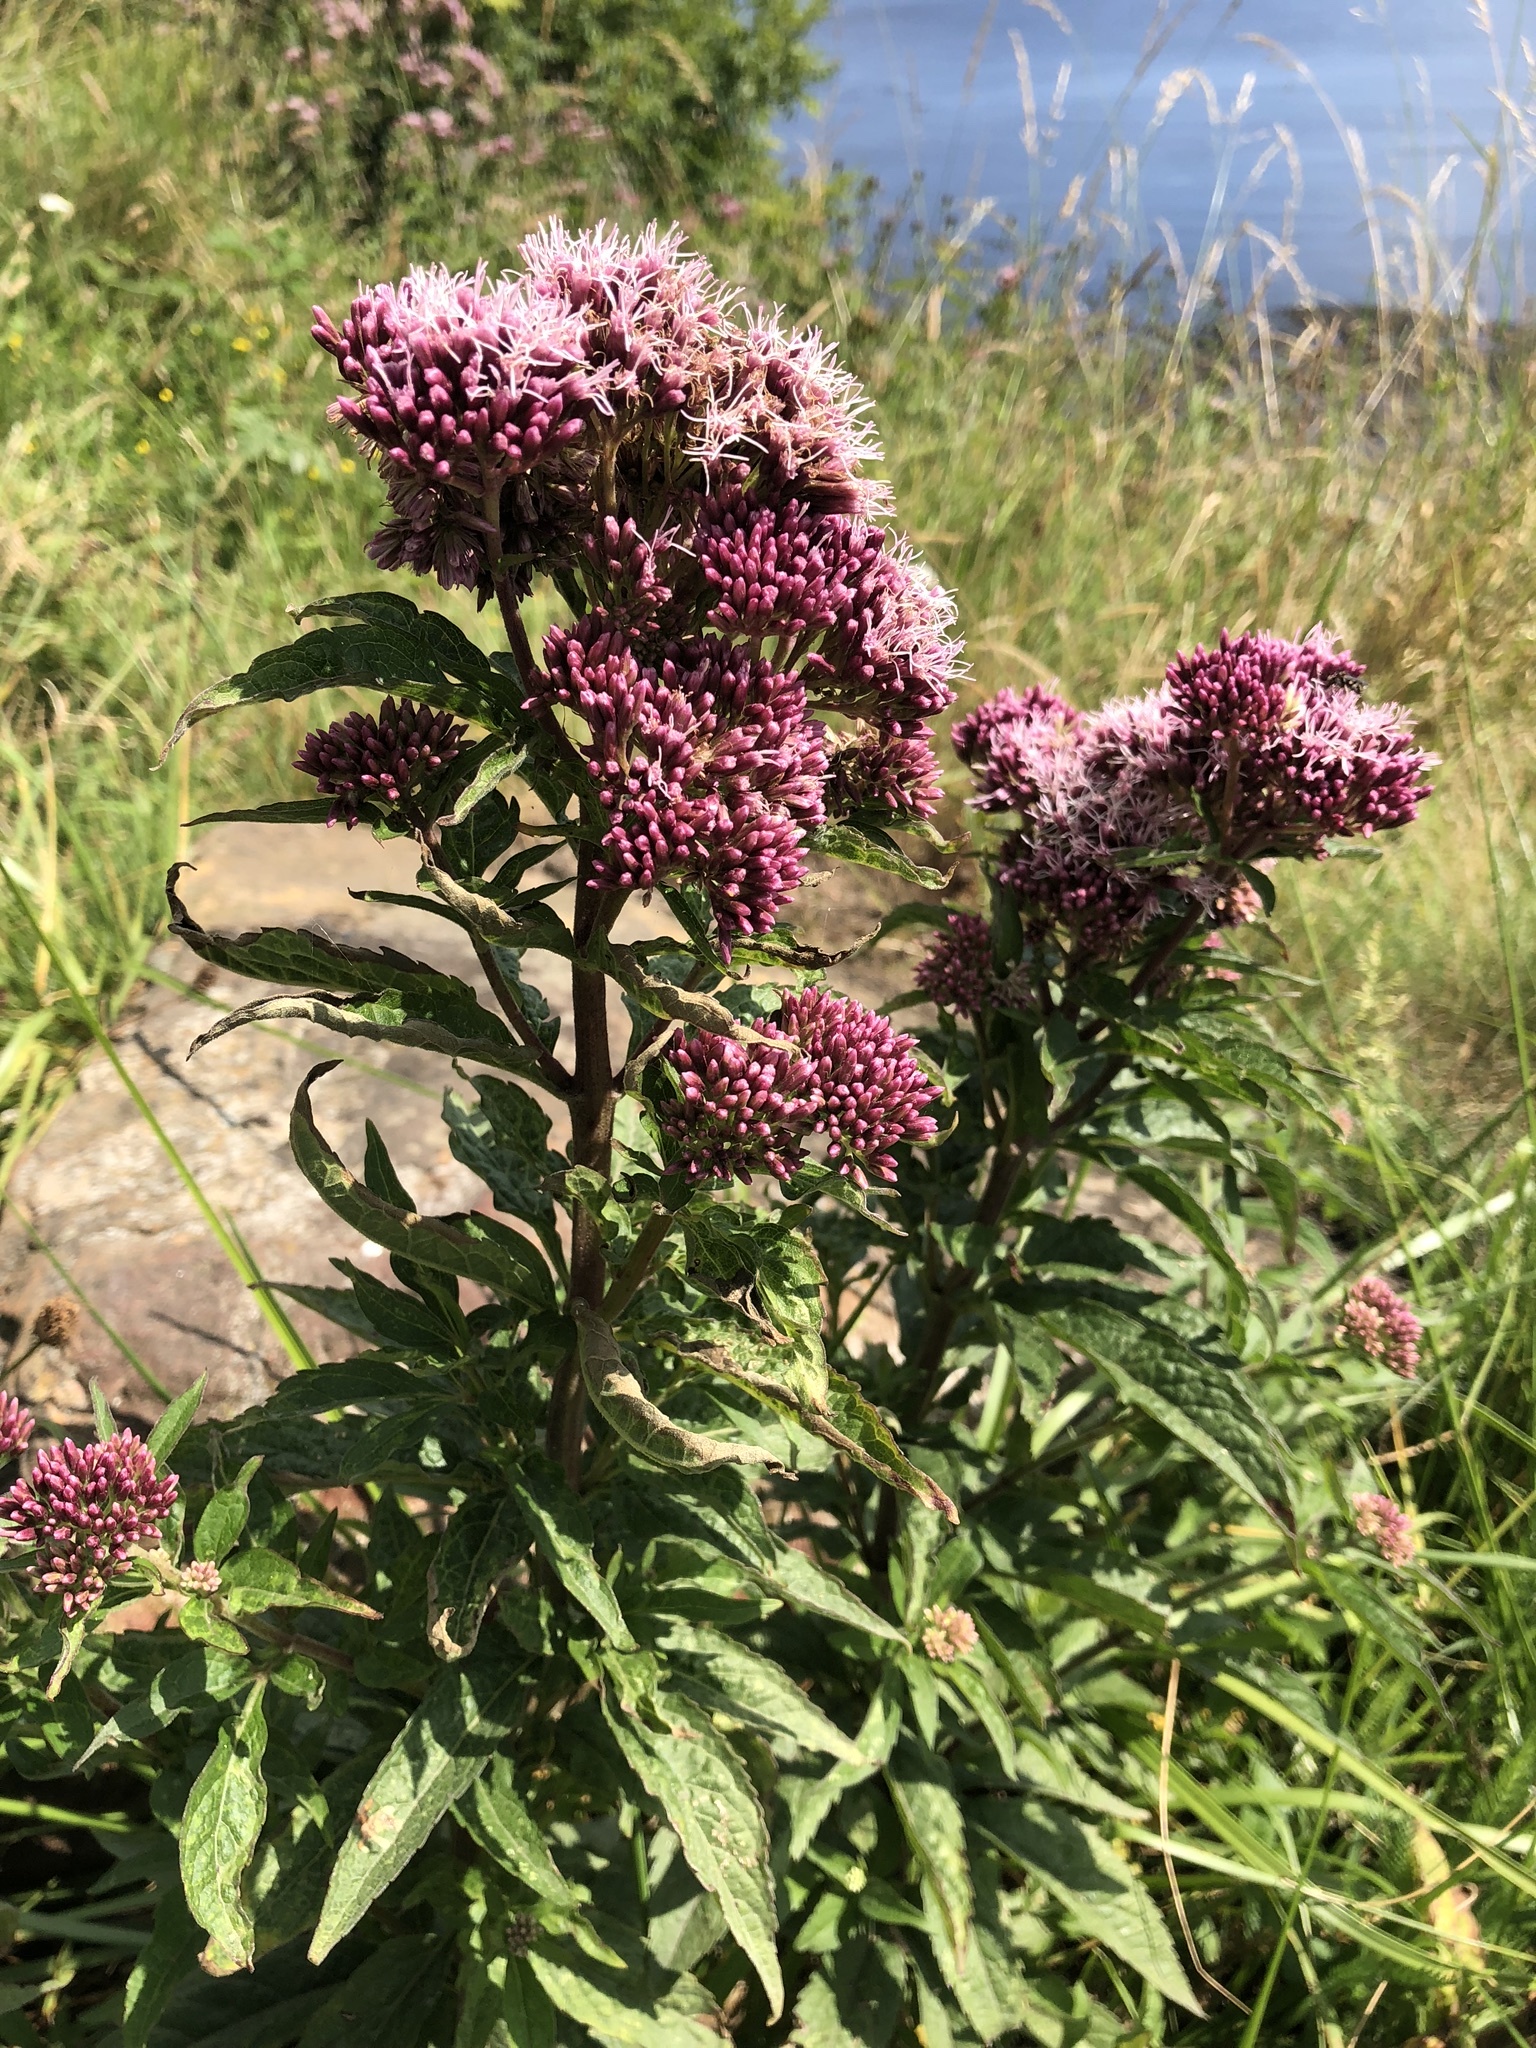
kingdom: Plantae
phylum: Tracheophyta
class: Magnoliopsida
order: Asterales
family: Asteraceae
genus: Eupatorium
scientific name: Eupatorium cannabinum
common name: Hemp-agrimony
